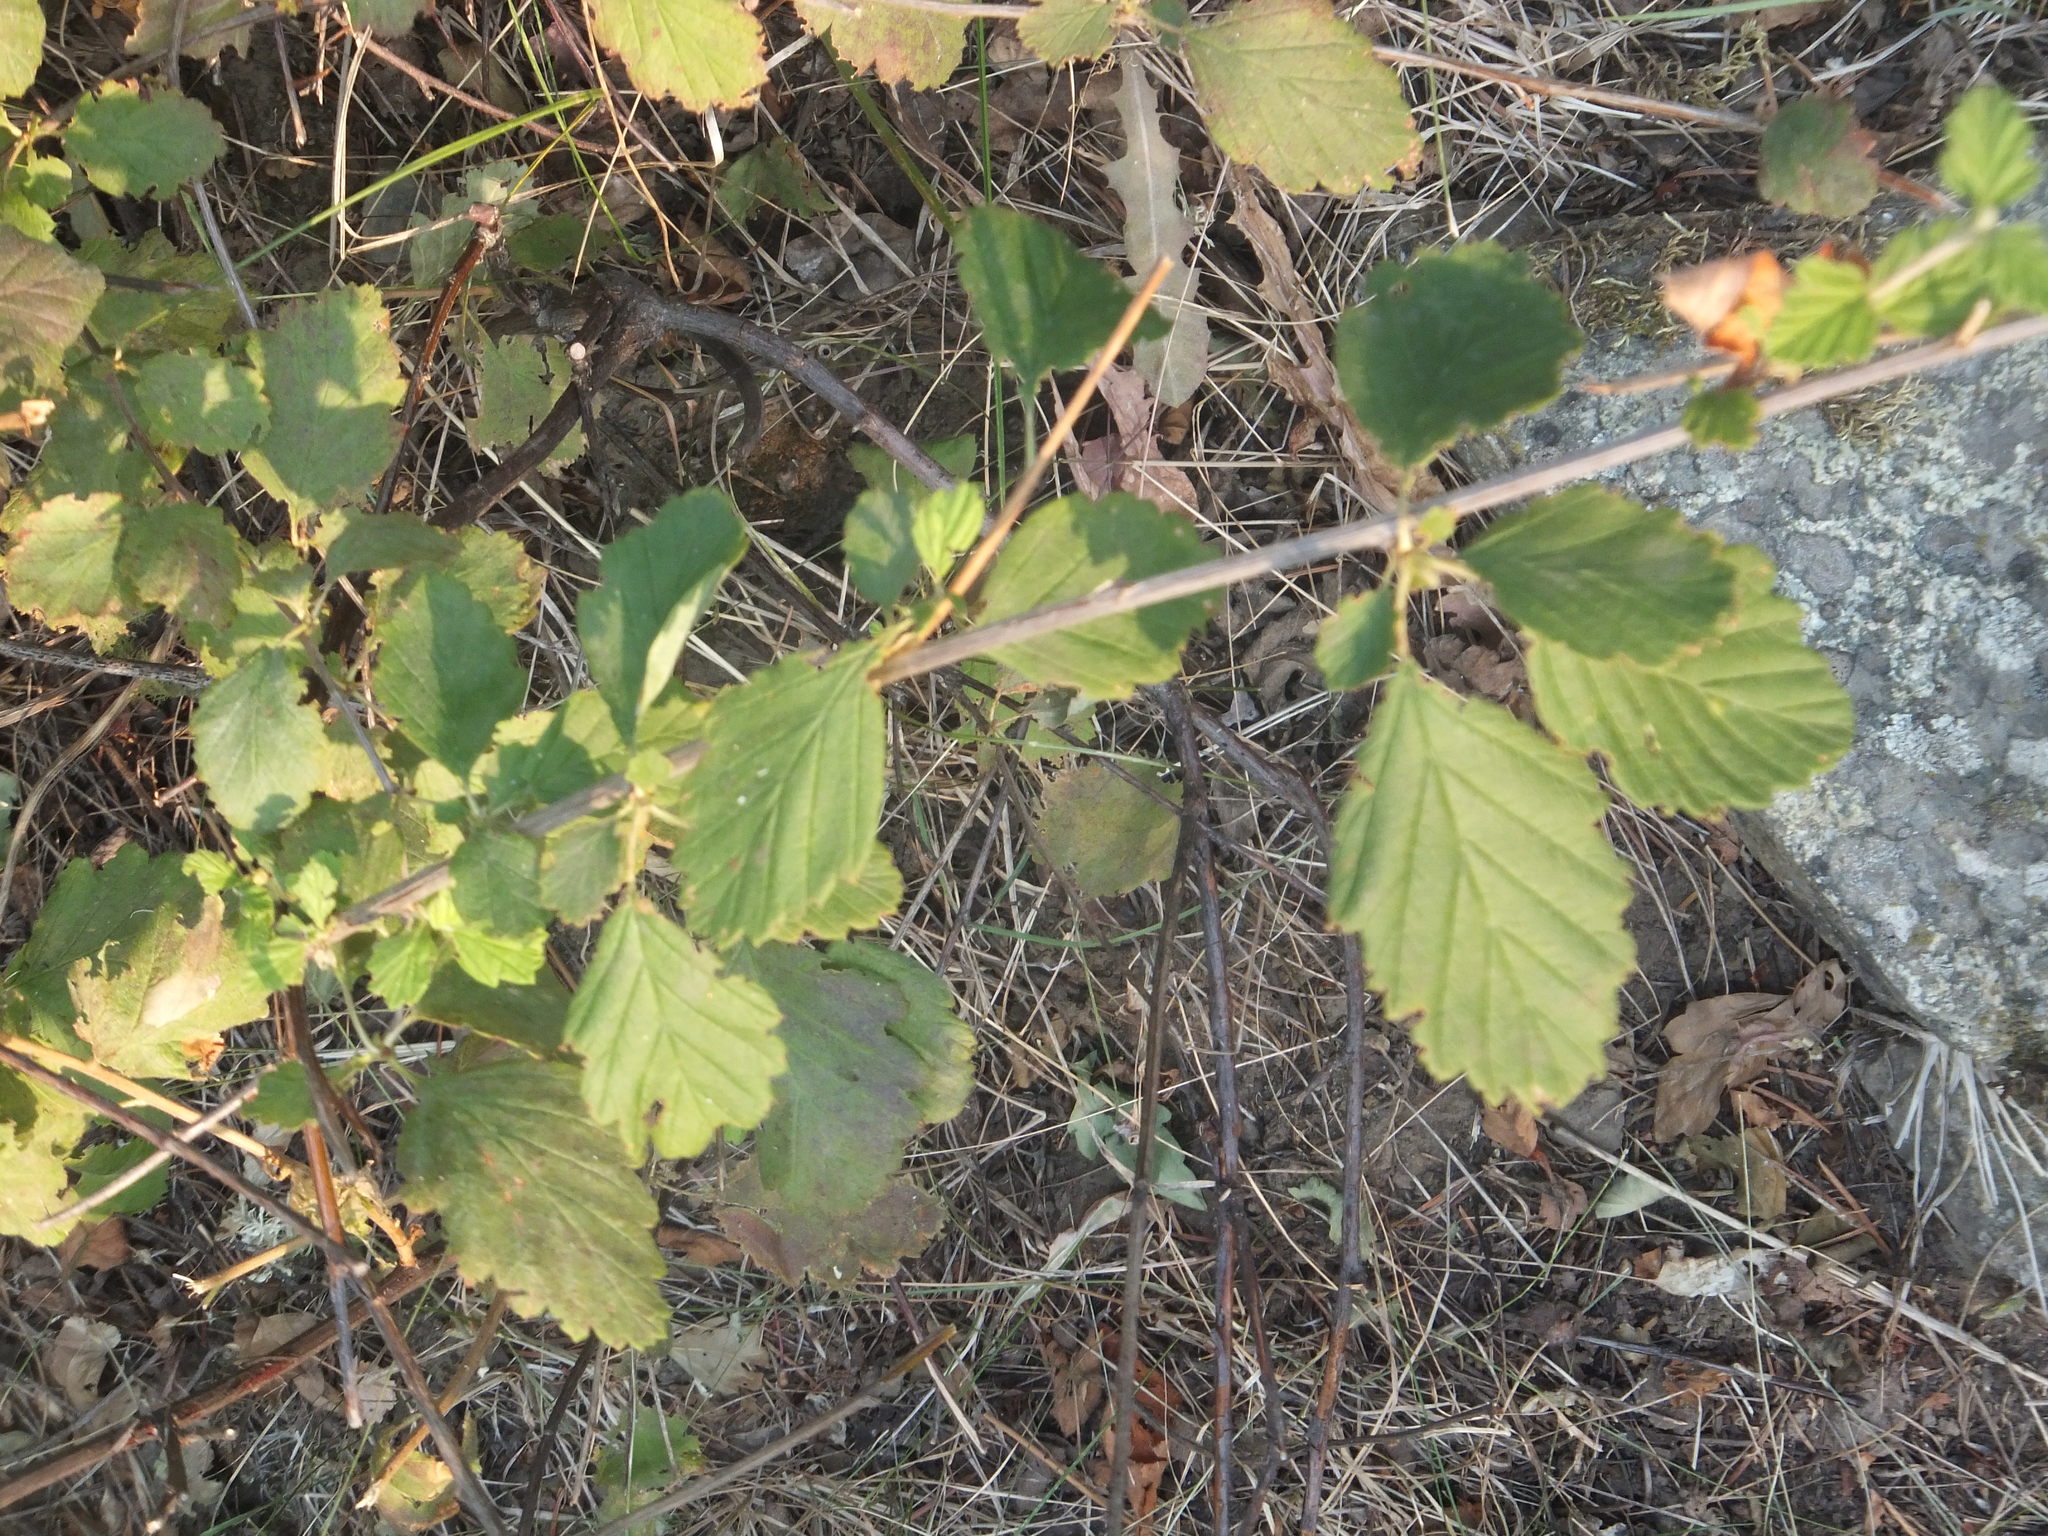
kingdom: Plantae
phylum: Tracheophyta
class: Magnoliopsida
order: Rosales
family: Rosaceae
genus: Holodiscus
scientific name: Holodiscus discolor
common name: Oceanspray
